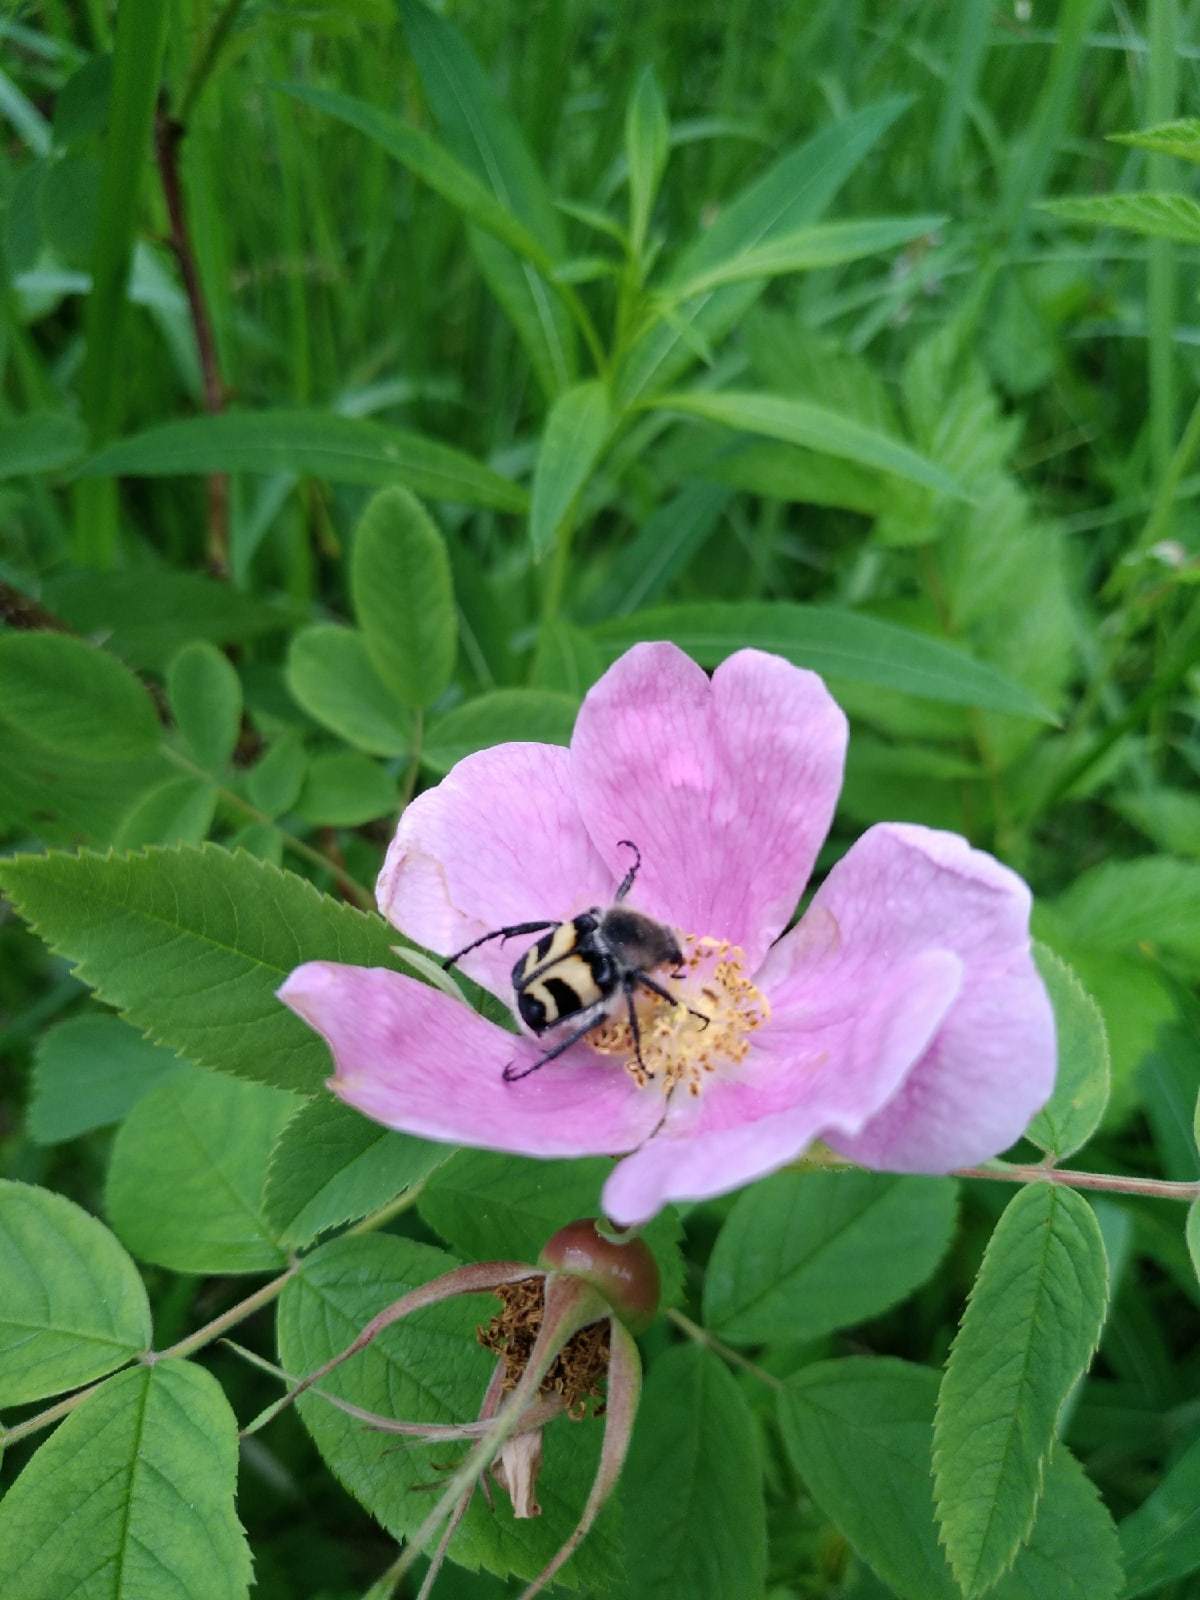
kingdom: Animalia
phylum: Arthropoda
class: Insecta
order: Coleoptera
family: Scarabaeidae
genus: Trichius
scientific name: Trichius fasciatus
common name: Bee beetle
